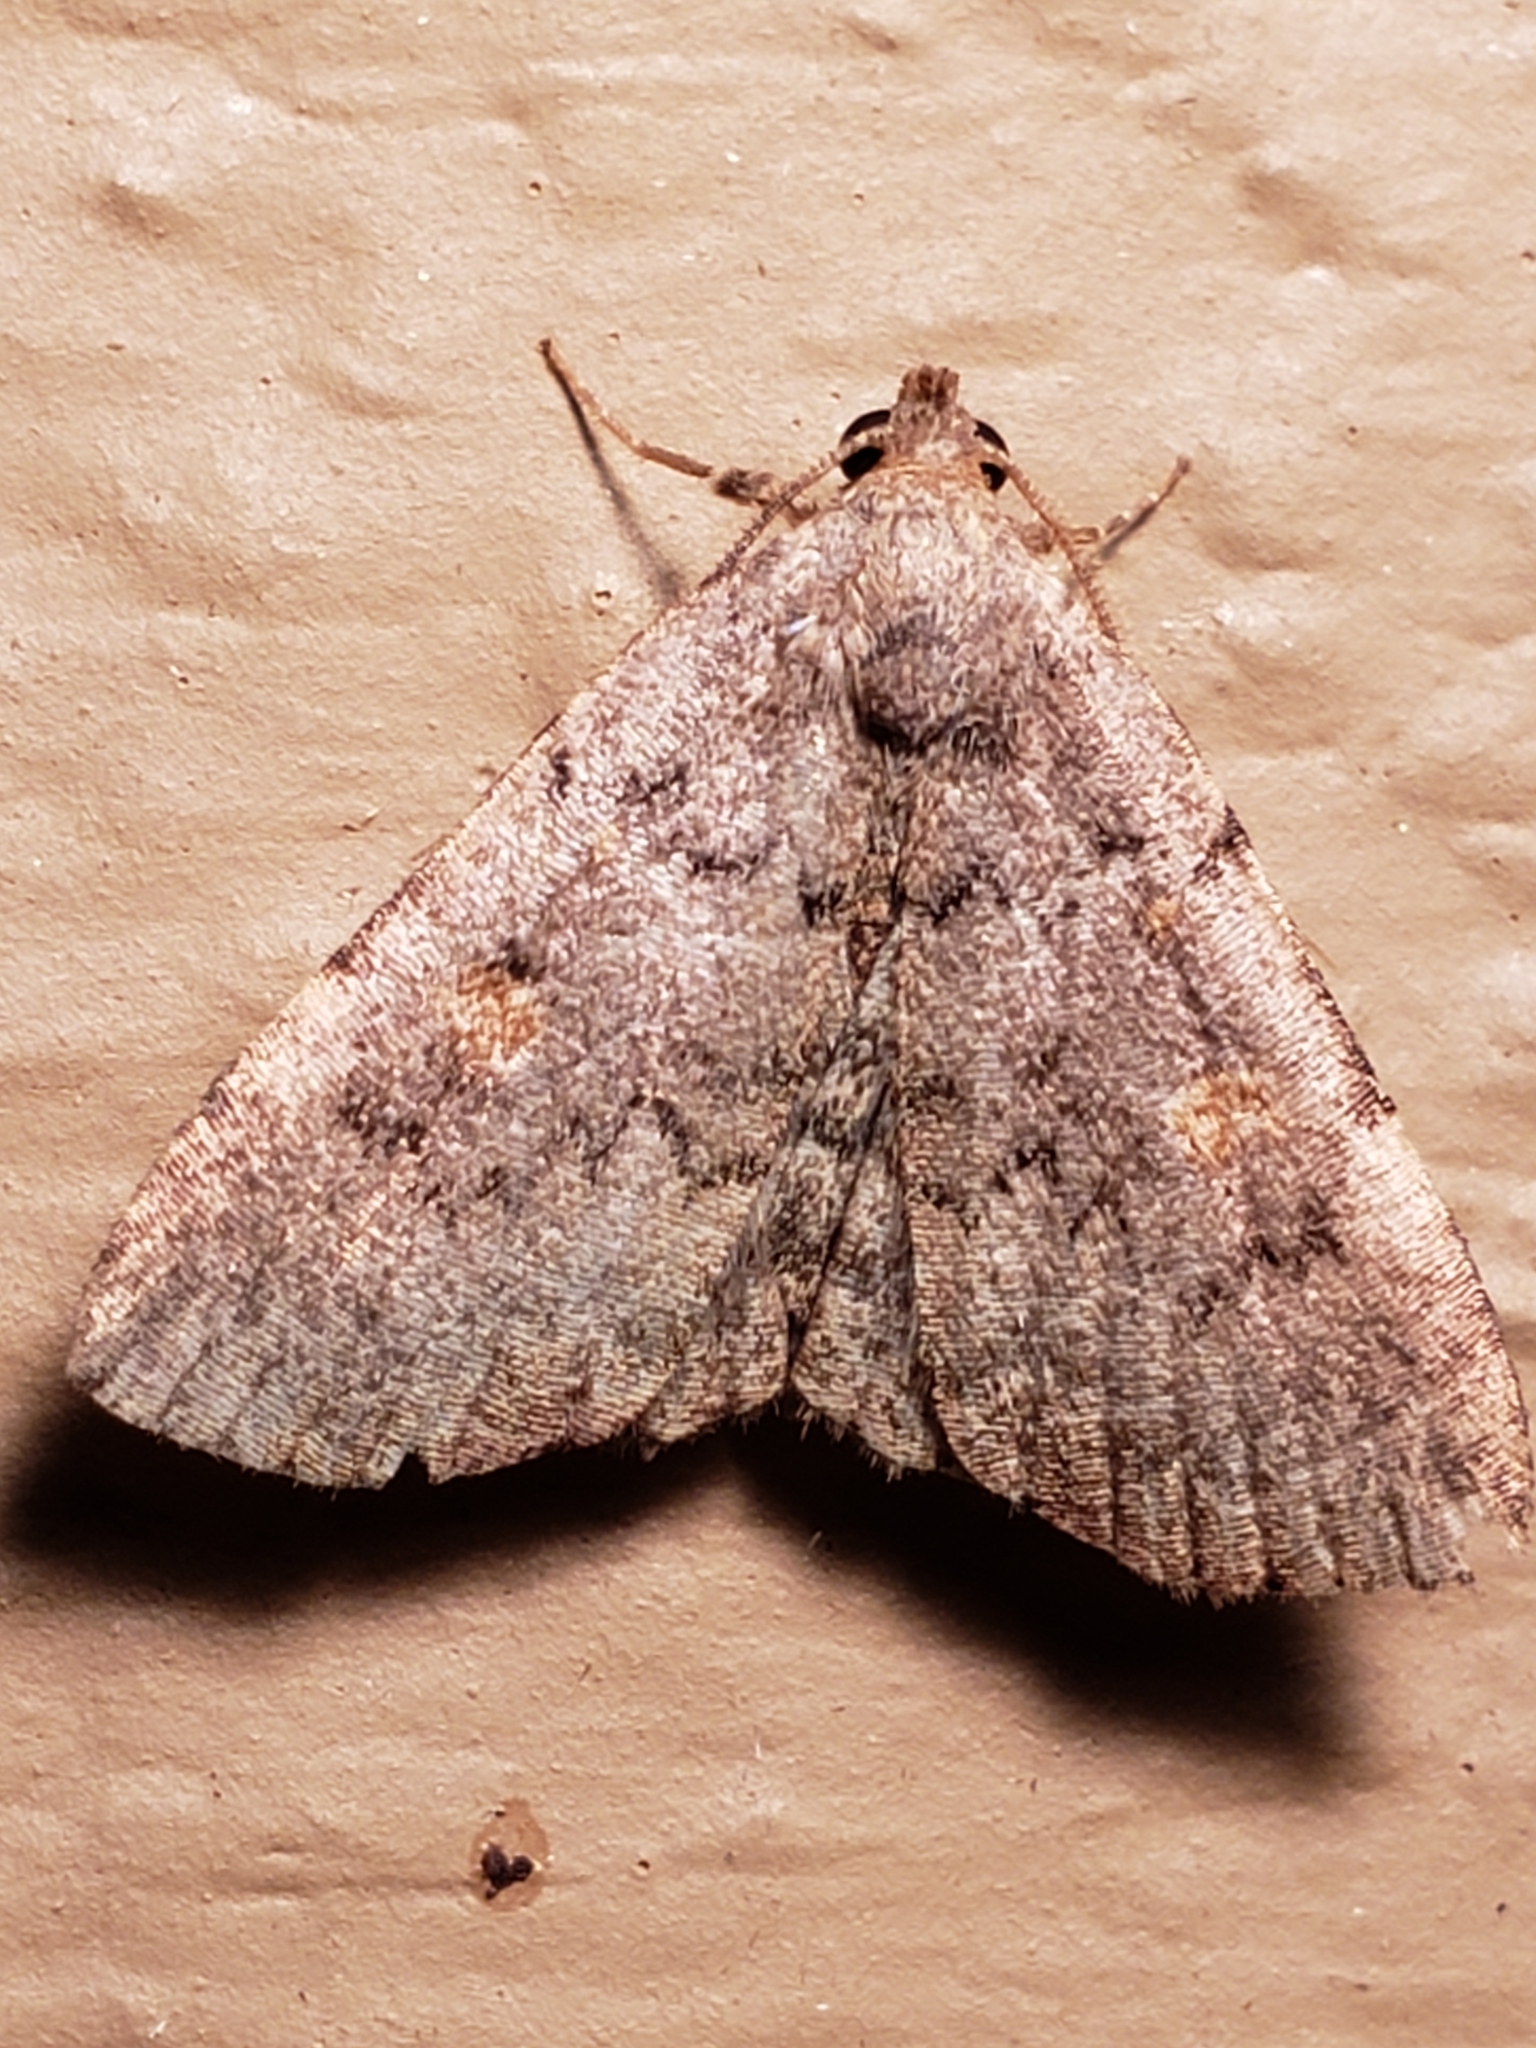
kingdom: Animalia
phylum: Arthropoda
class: Insecta
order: Lepidoptera
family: Erebidae
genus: Idia
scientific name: Idia aemula
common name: Common idia moth
